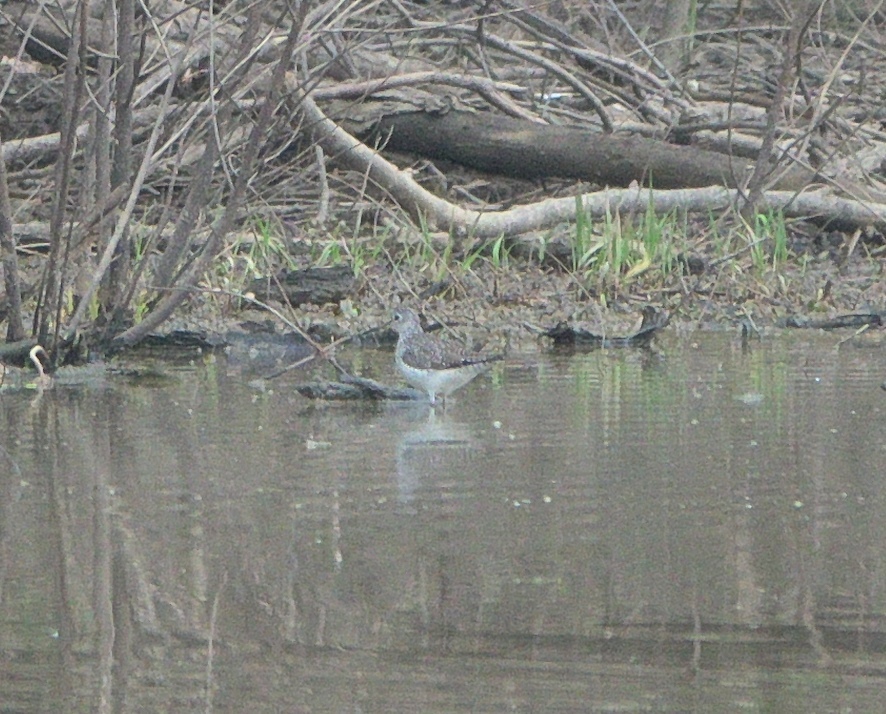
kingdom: Animalia
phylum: Chordata
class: Aves
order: Charadriiformes
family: Scolopacidae
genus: Tringa
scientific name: Tringa solitaria
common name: Solitary sandpiper
